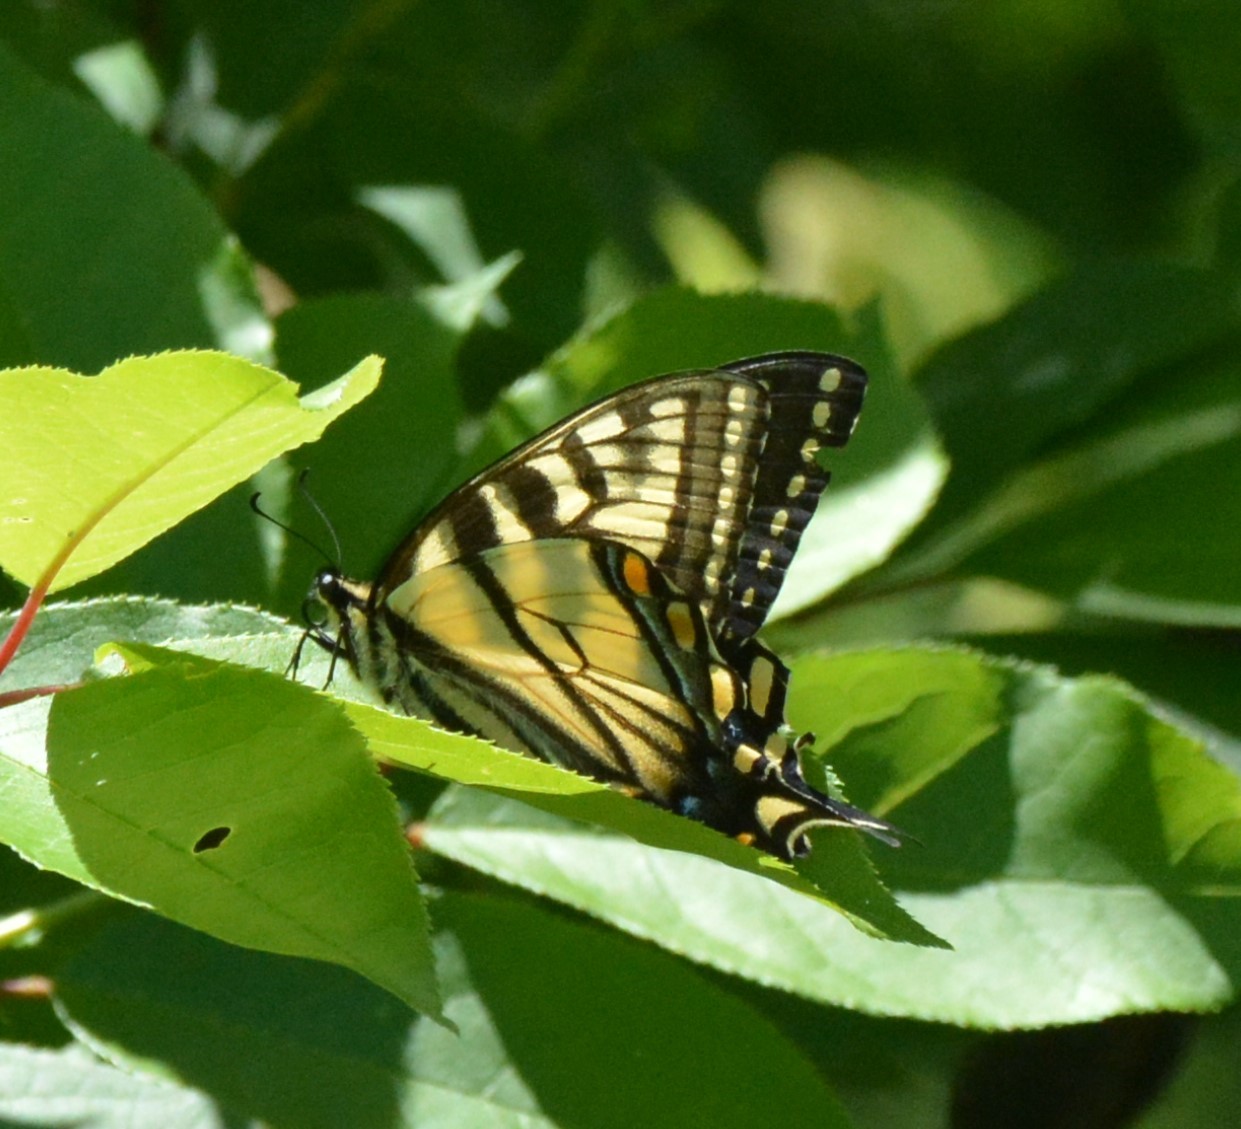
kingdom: Animalia
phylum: Arthropoda
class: Insecta
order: Lepidoptera
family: Papilionidae
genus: Papilio
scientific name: Papilio canadensis
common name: Canadian tiger swallowtail
